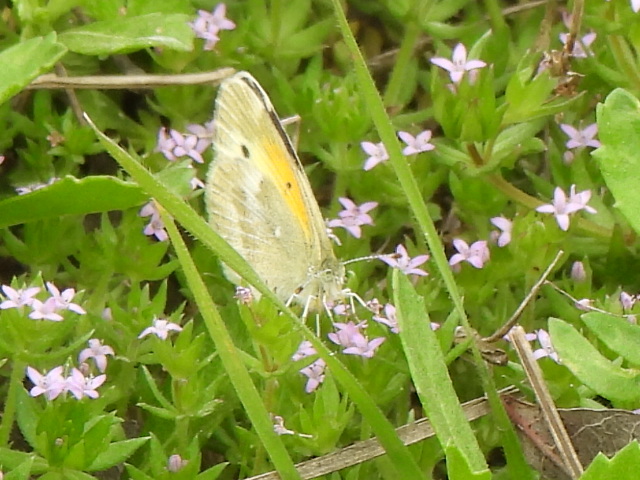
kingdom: Animalia
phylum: Arthropoda
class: Insecta
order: Lepidoptera
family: Pieridae
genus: Nathalis
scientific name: Nathalis iole
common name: Dainty sulphur
